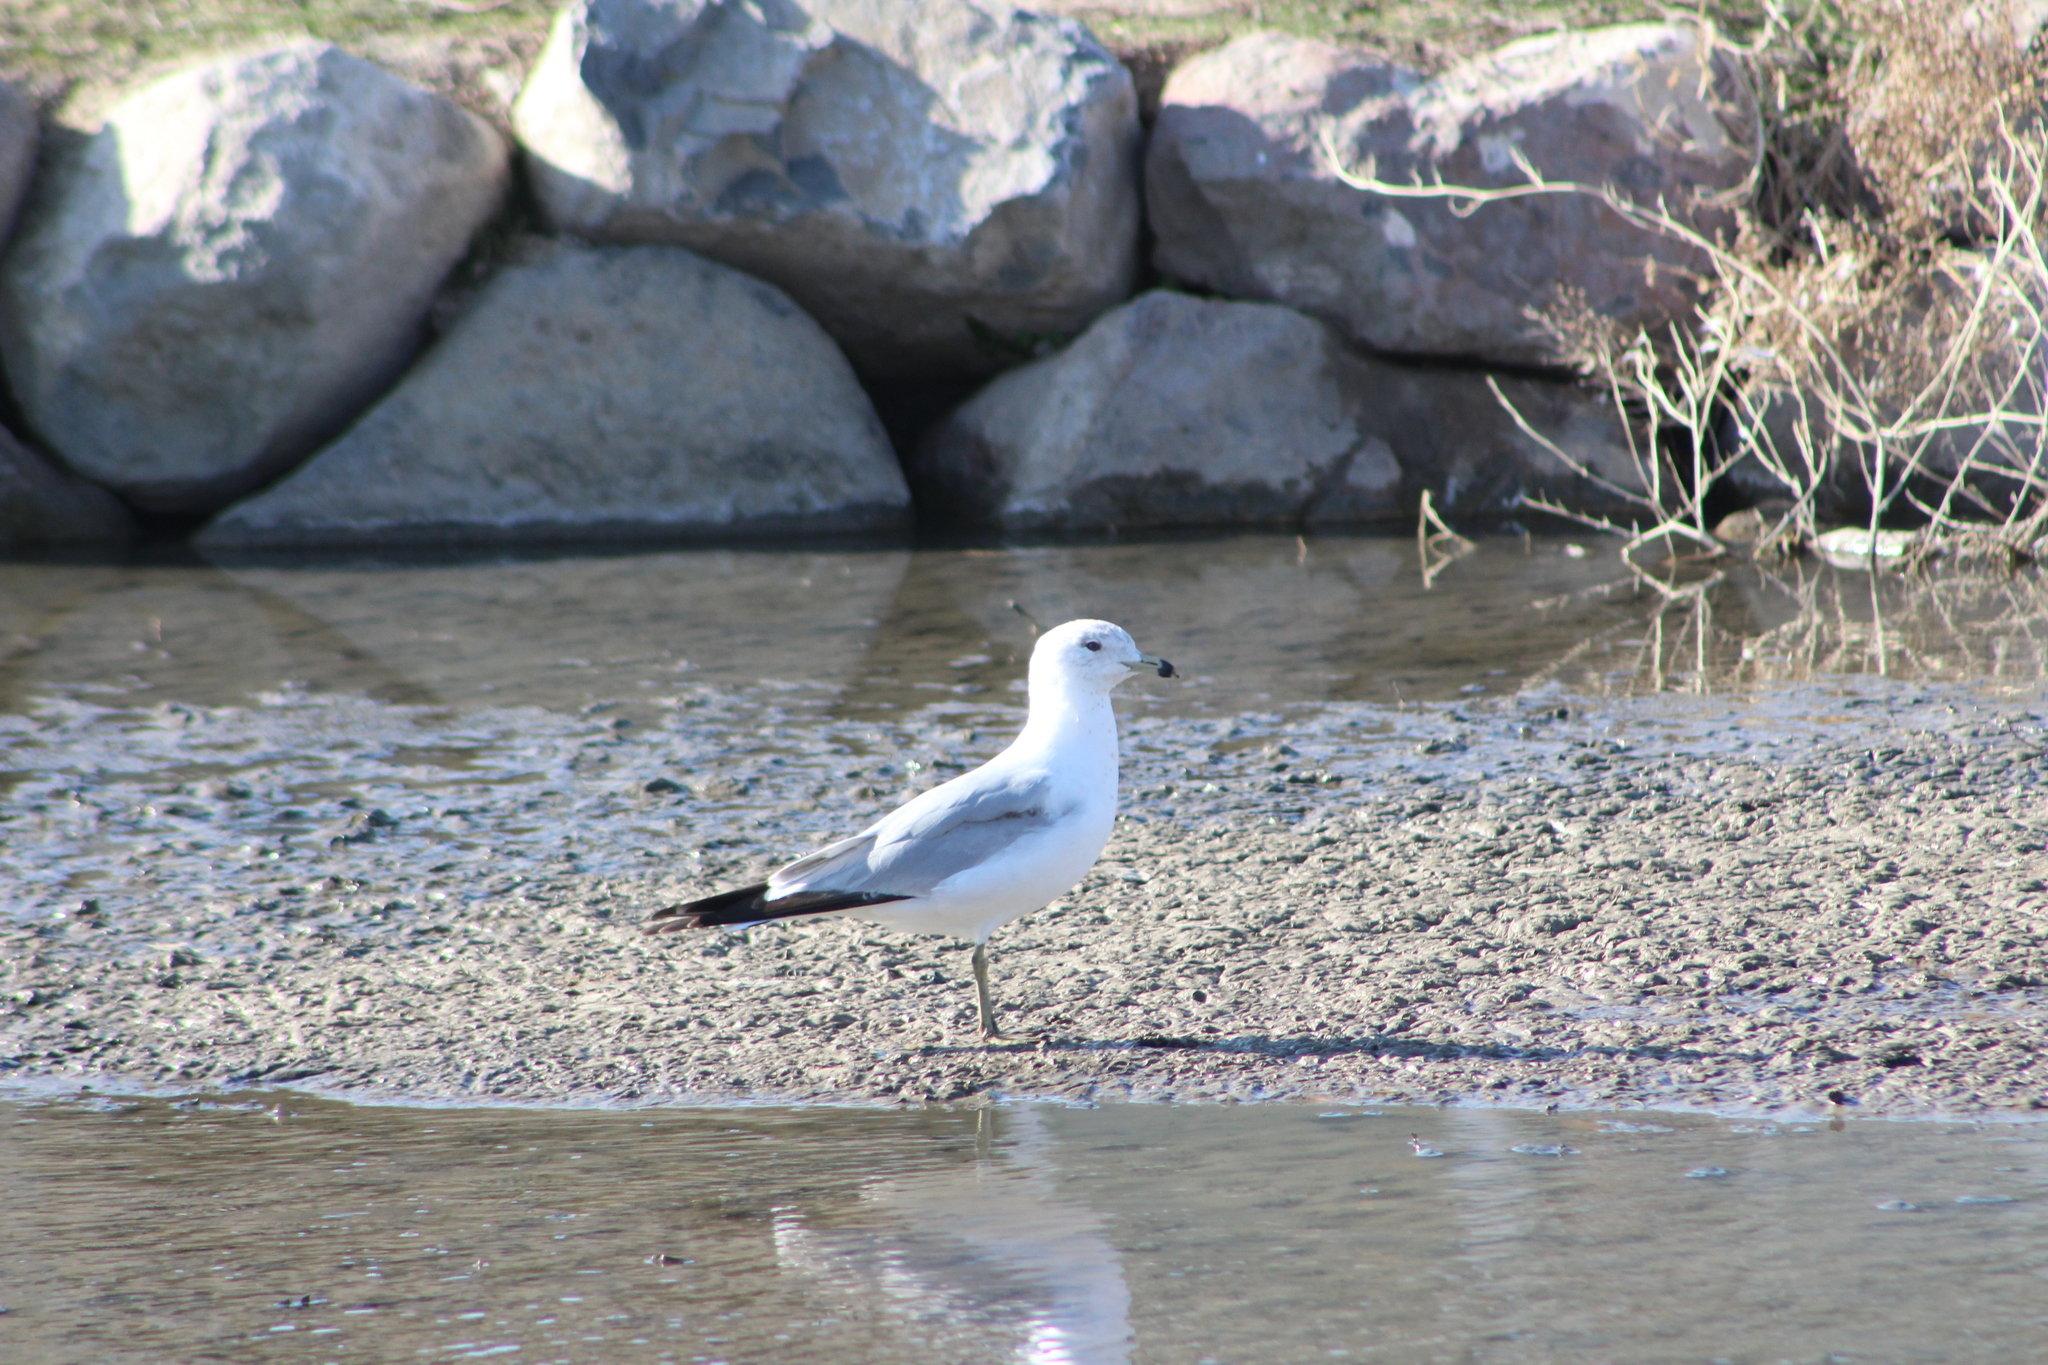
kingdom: Animalia
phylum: Chordata
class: Aves
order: Charadriiformes
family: Laridae
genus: Larus
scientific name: Larus delawarensis
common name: Ring-billed gull
